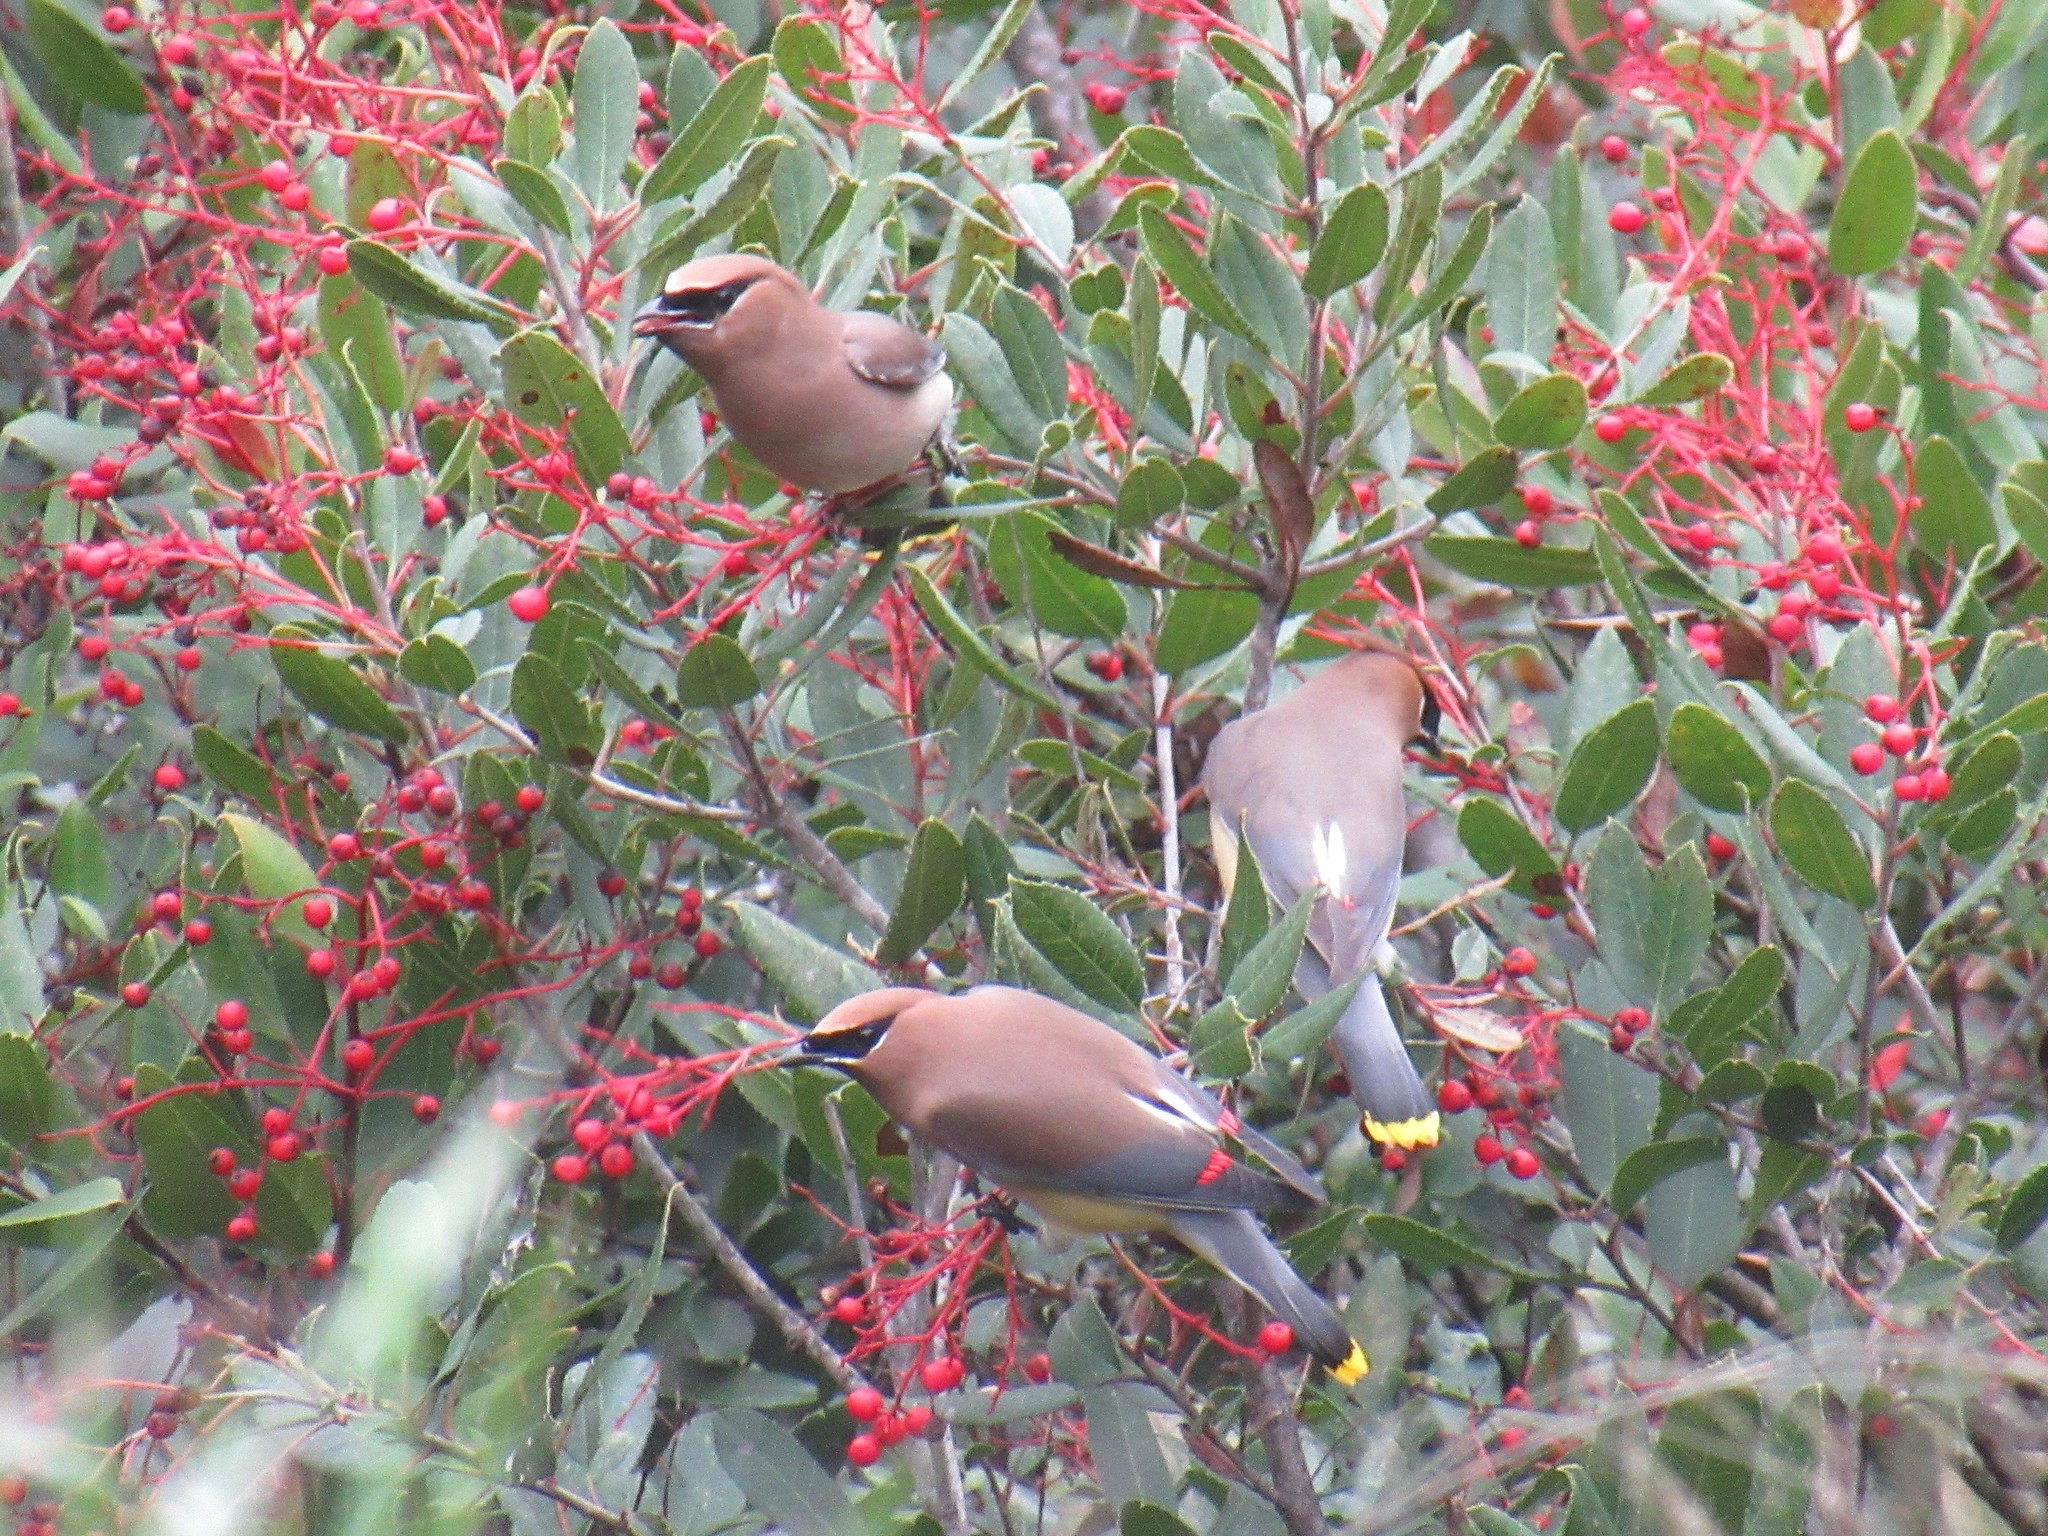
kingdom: Animalia
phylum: Chordata
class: Aves
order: Passeriformes
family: Bombycillidae
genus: Bombycilla
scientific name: Bombycilla cedrorum
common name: Cedar waxwing
